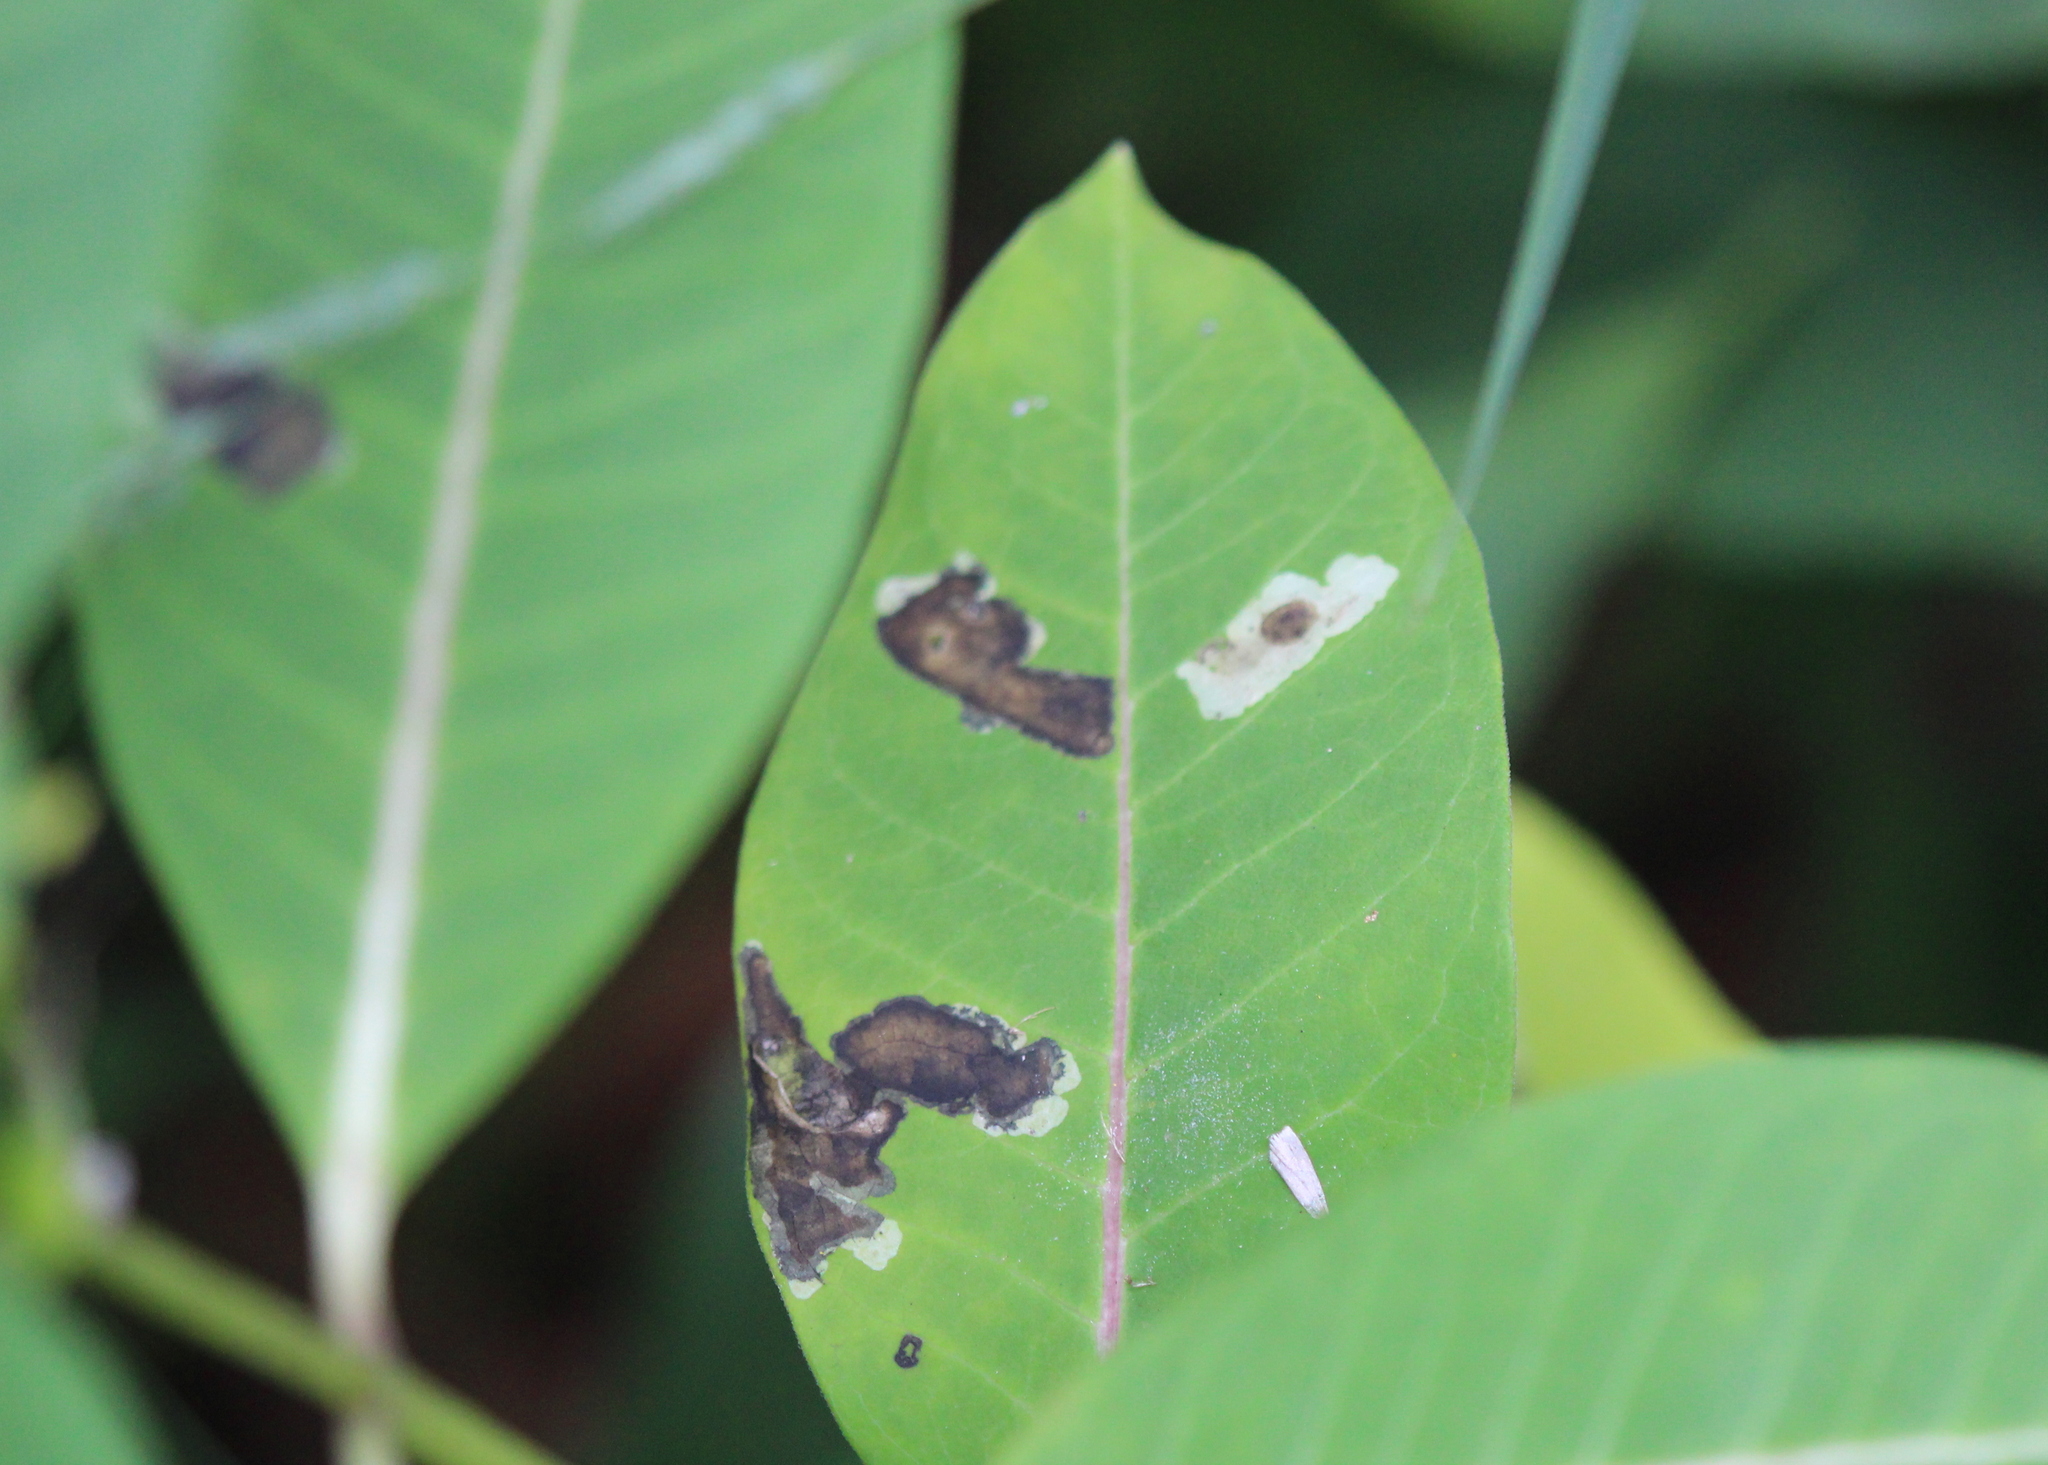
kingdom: Animalia
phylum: Arthropoda
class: Insecta
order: Diptera
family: Agromyzidae
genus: Liriomyza
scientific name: Liriomyza asclepiadis
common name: Milkweed leaf-miner fly
